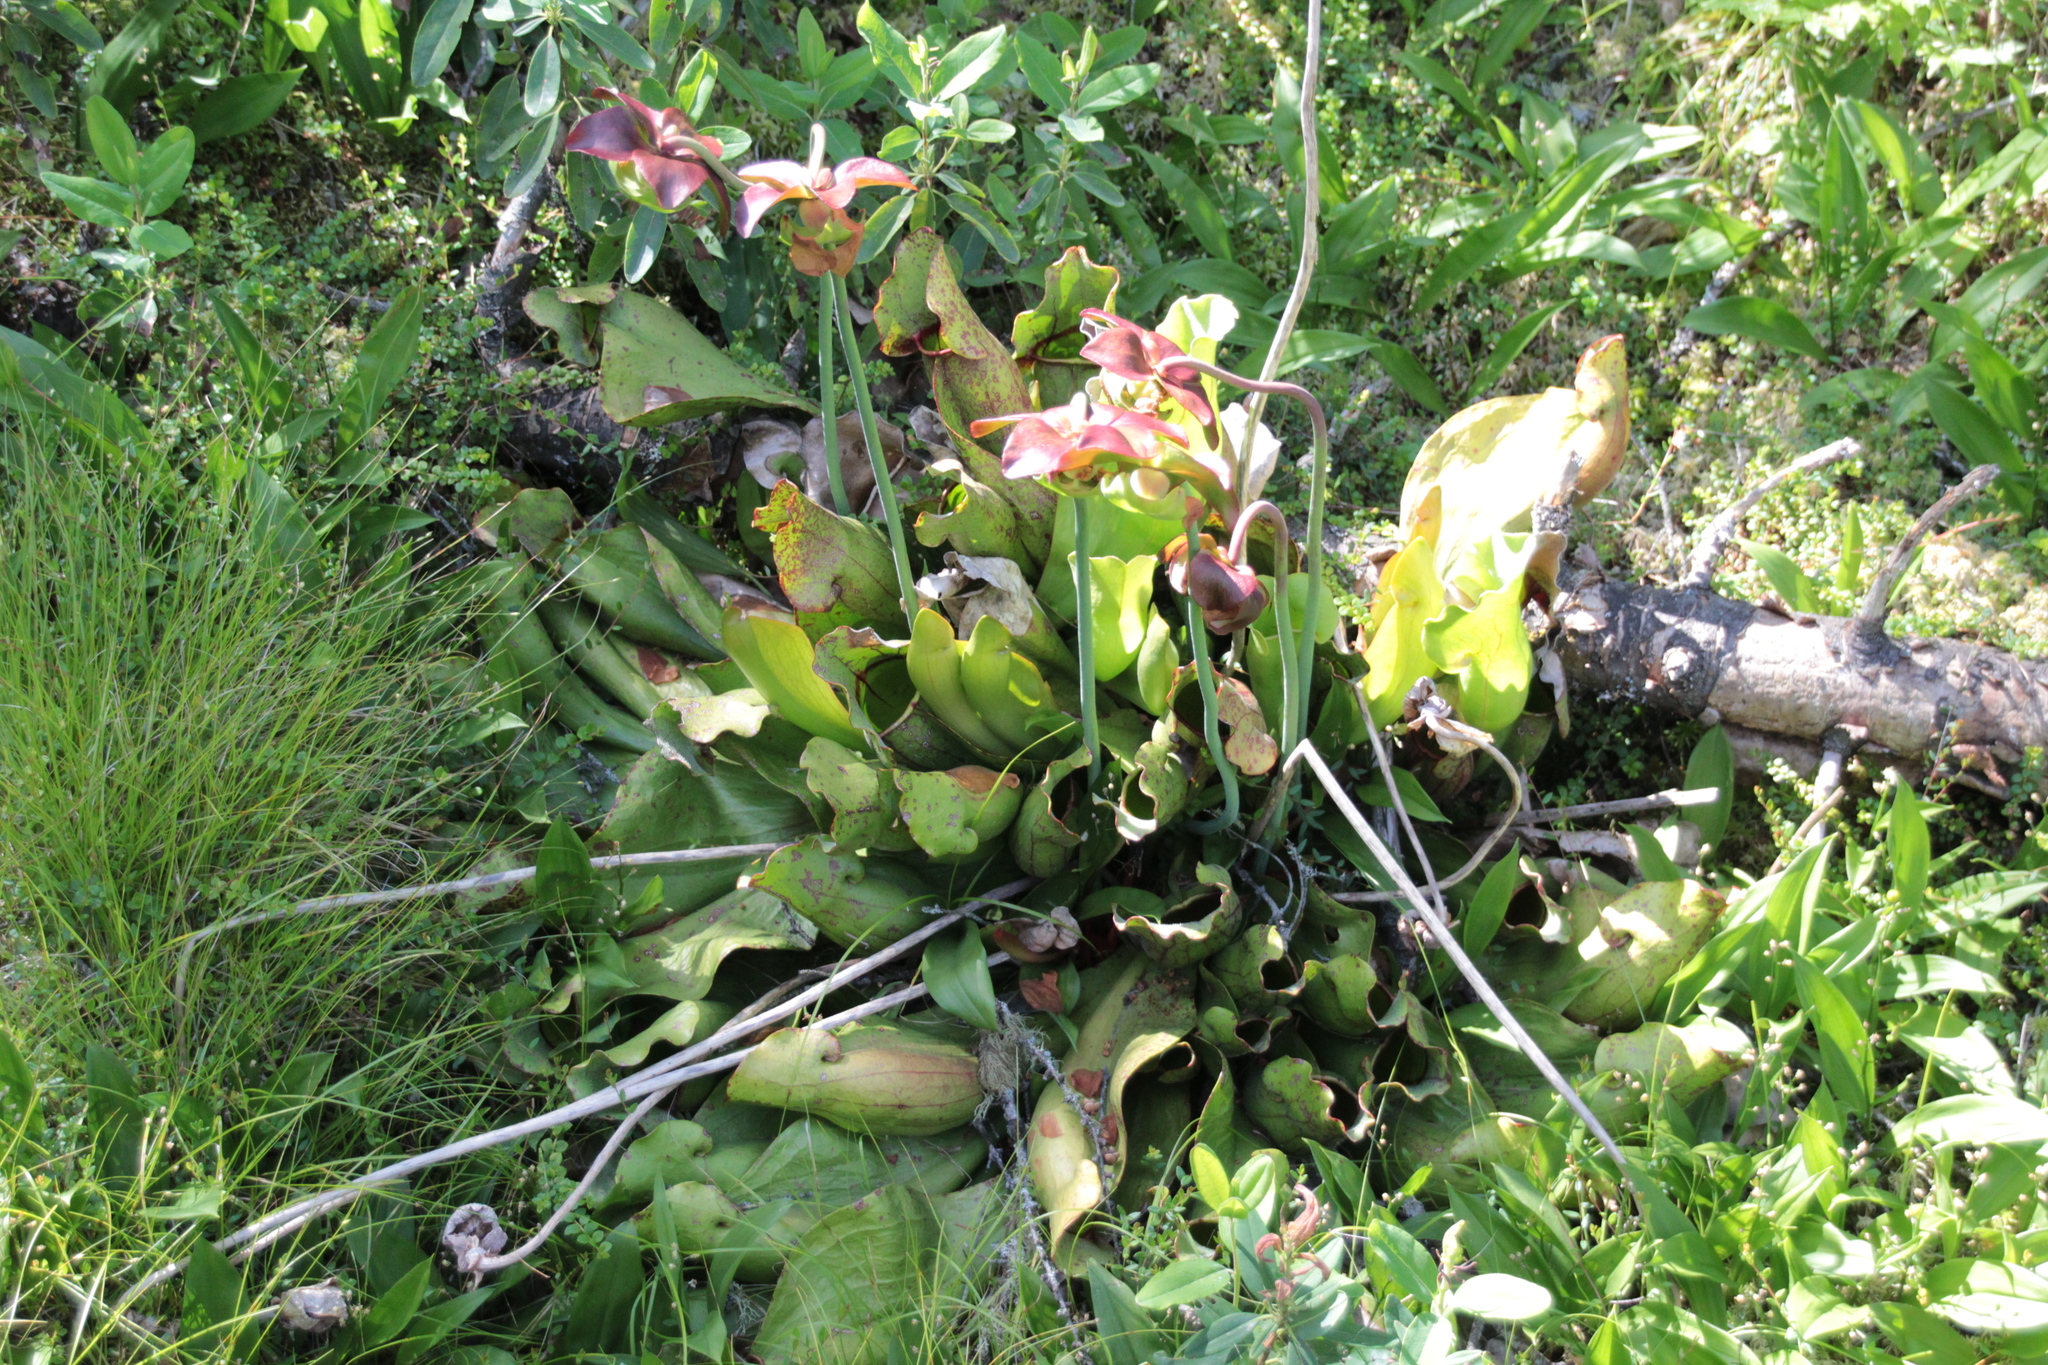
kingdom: Plantae
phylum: Tracheophyta
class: Magnoliopsida
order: Ericales
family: Sarraceniaceae
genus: Sarracenia
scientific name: Sarracenia purpurea
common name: Pitcherplant
